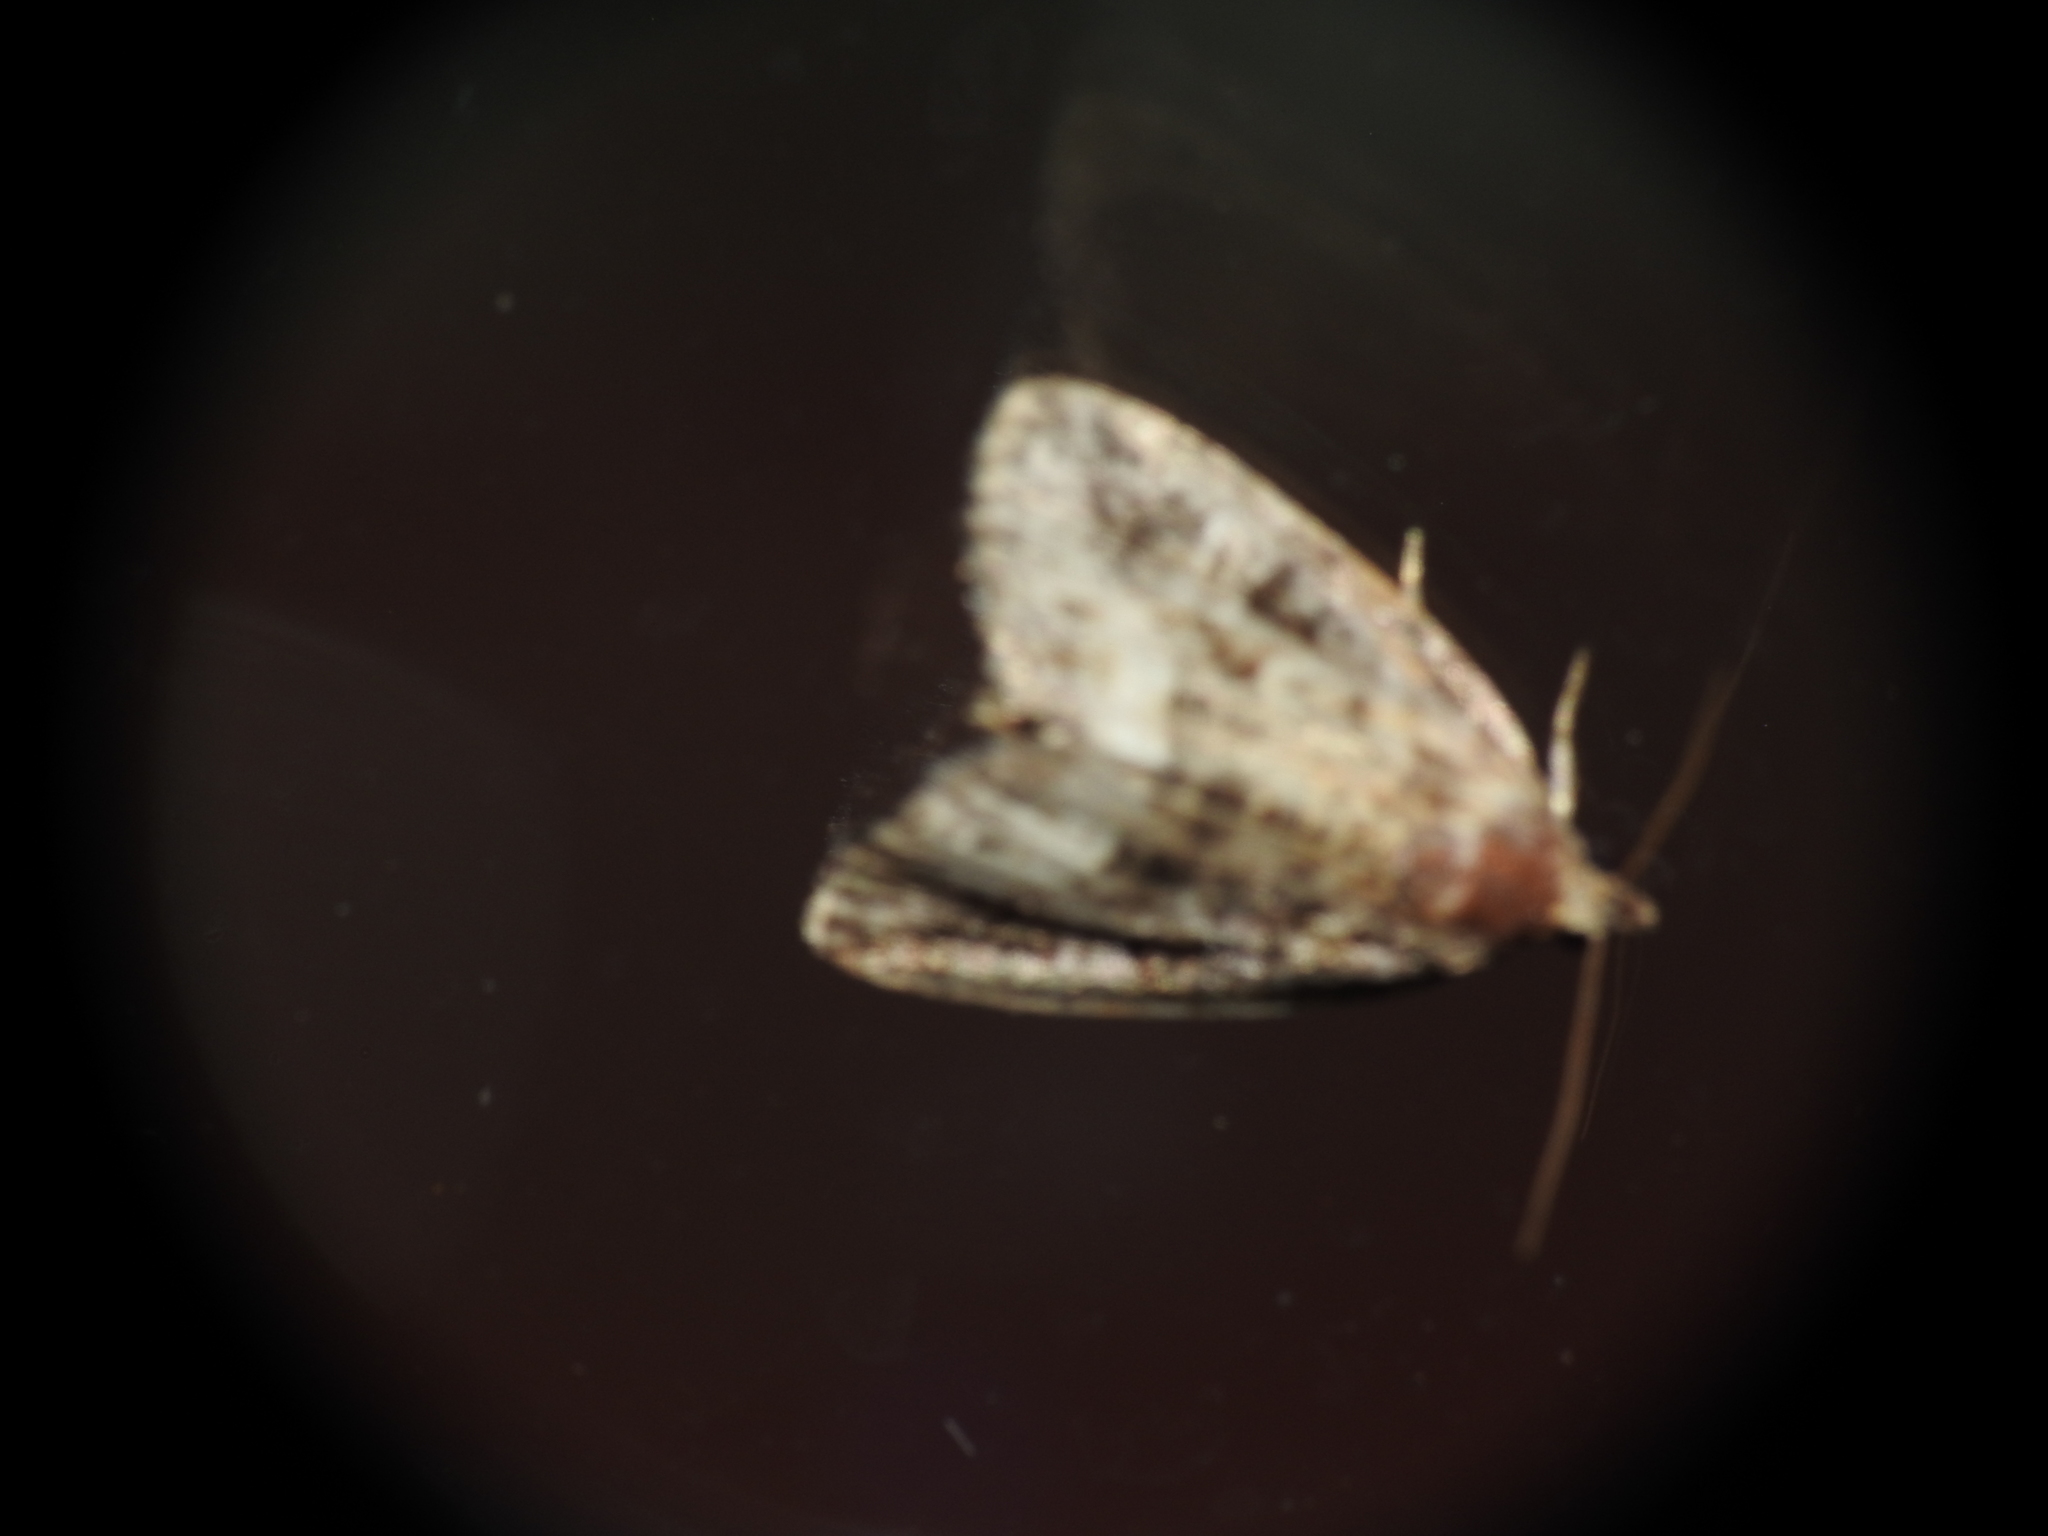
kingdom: Animalia
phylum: Arthropoda
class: Insecta
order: Lepidoptera
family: Noctuidae
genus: Protodeltote
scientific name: Protodeltote muscosula
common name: Large mossy glyph
